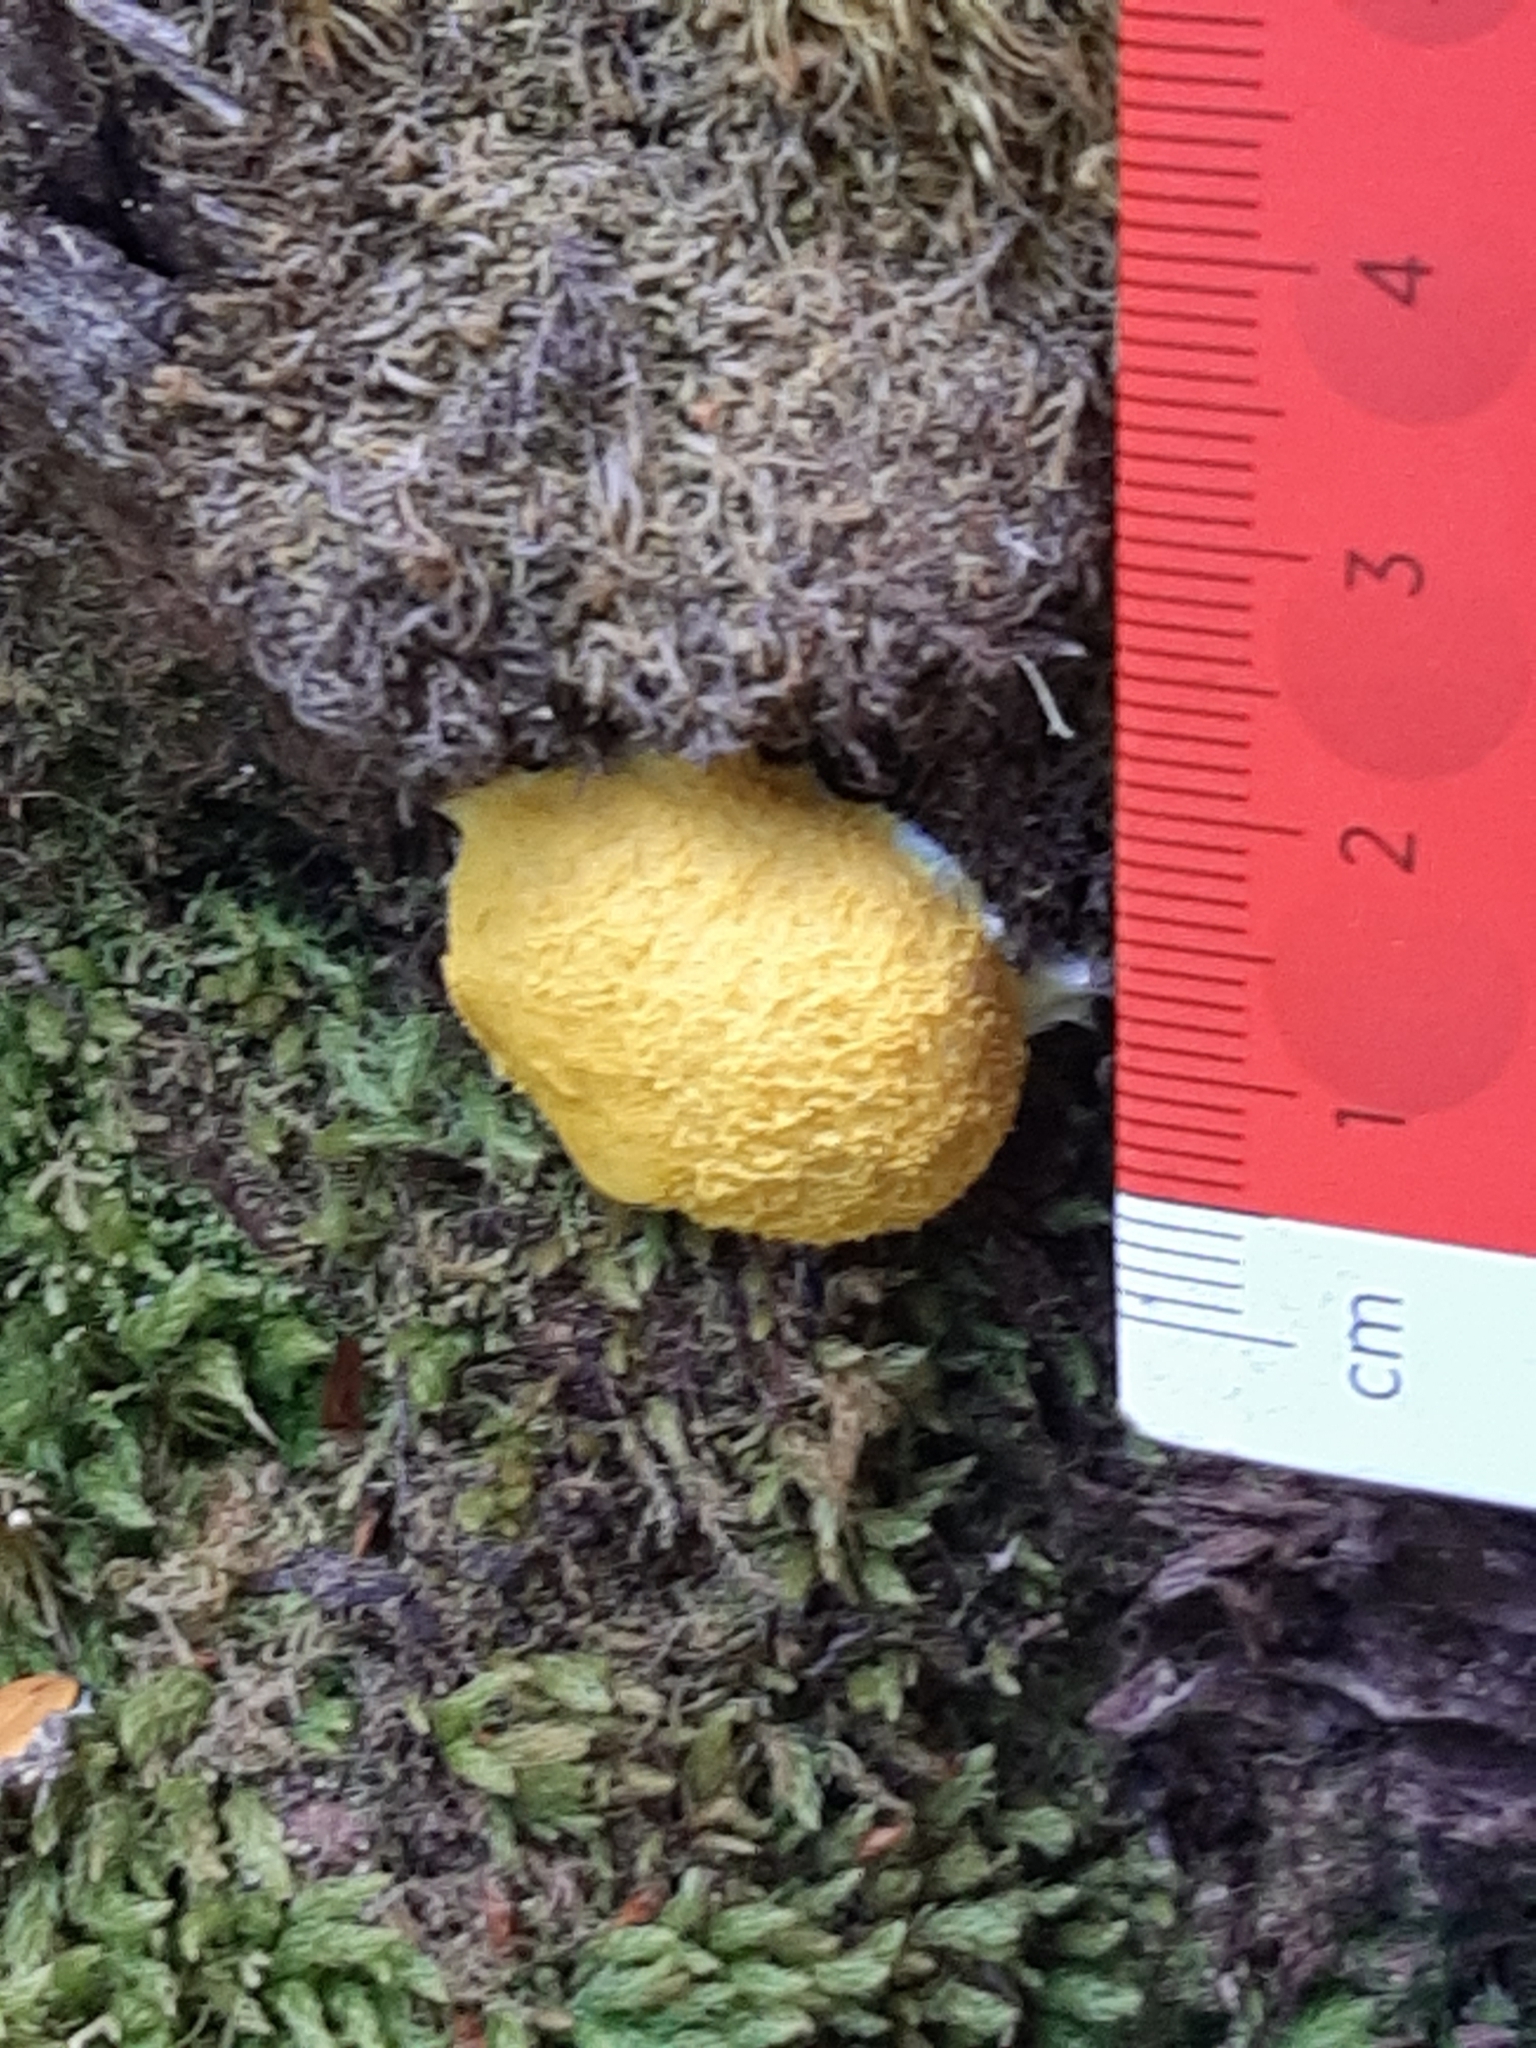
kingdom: Protozoa
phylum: Mycetozoa
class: Myxomycetes
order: Physarales
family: Physaraceae
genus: Fuligo
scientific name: Fuligo septica
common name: Dog vomit slime mold
